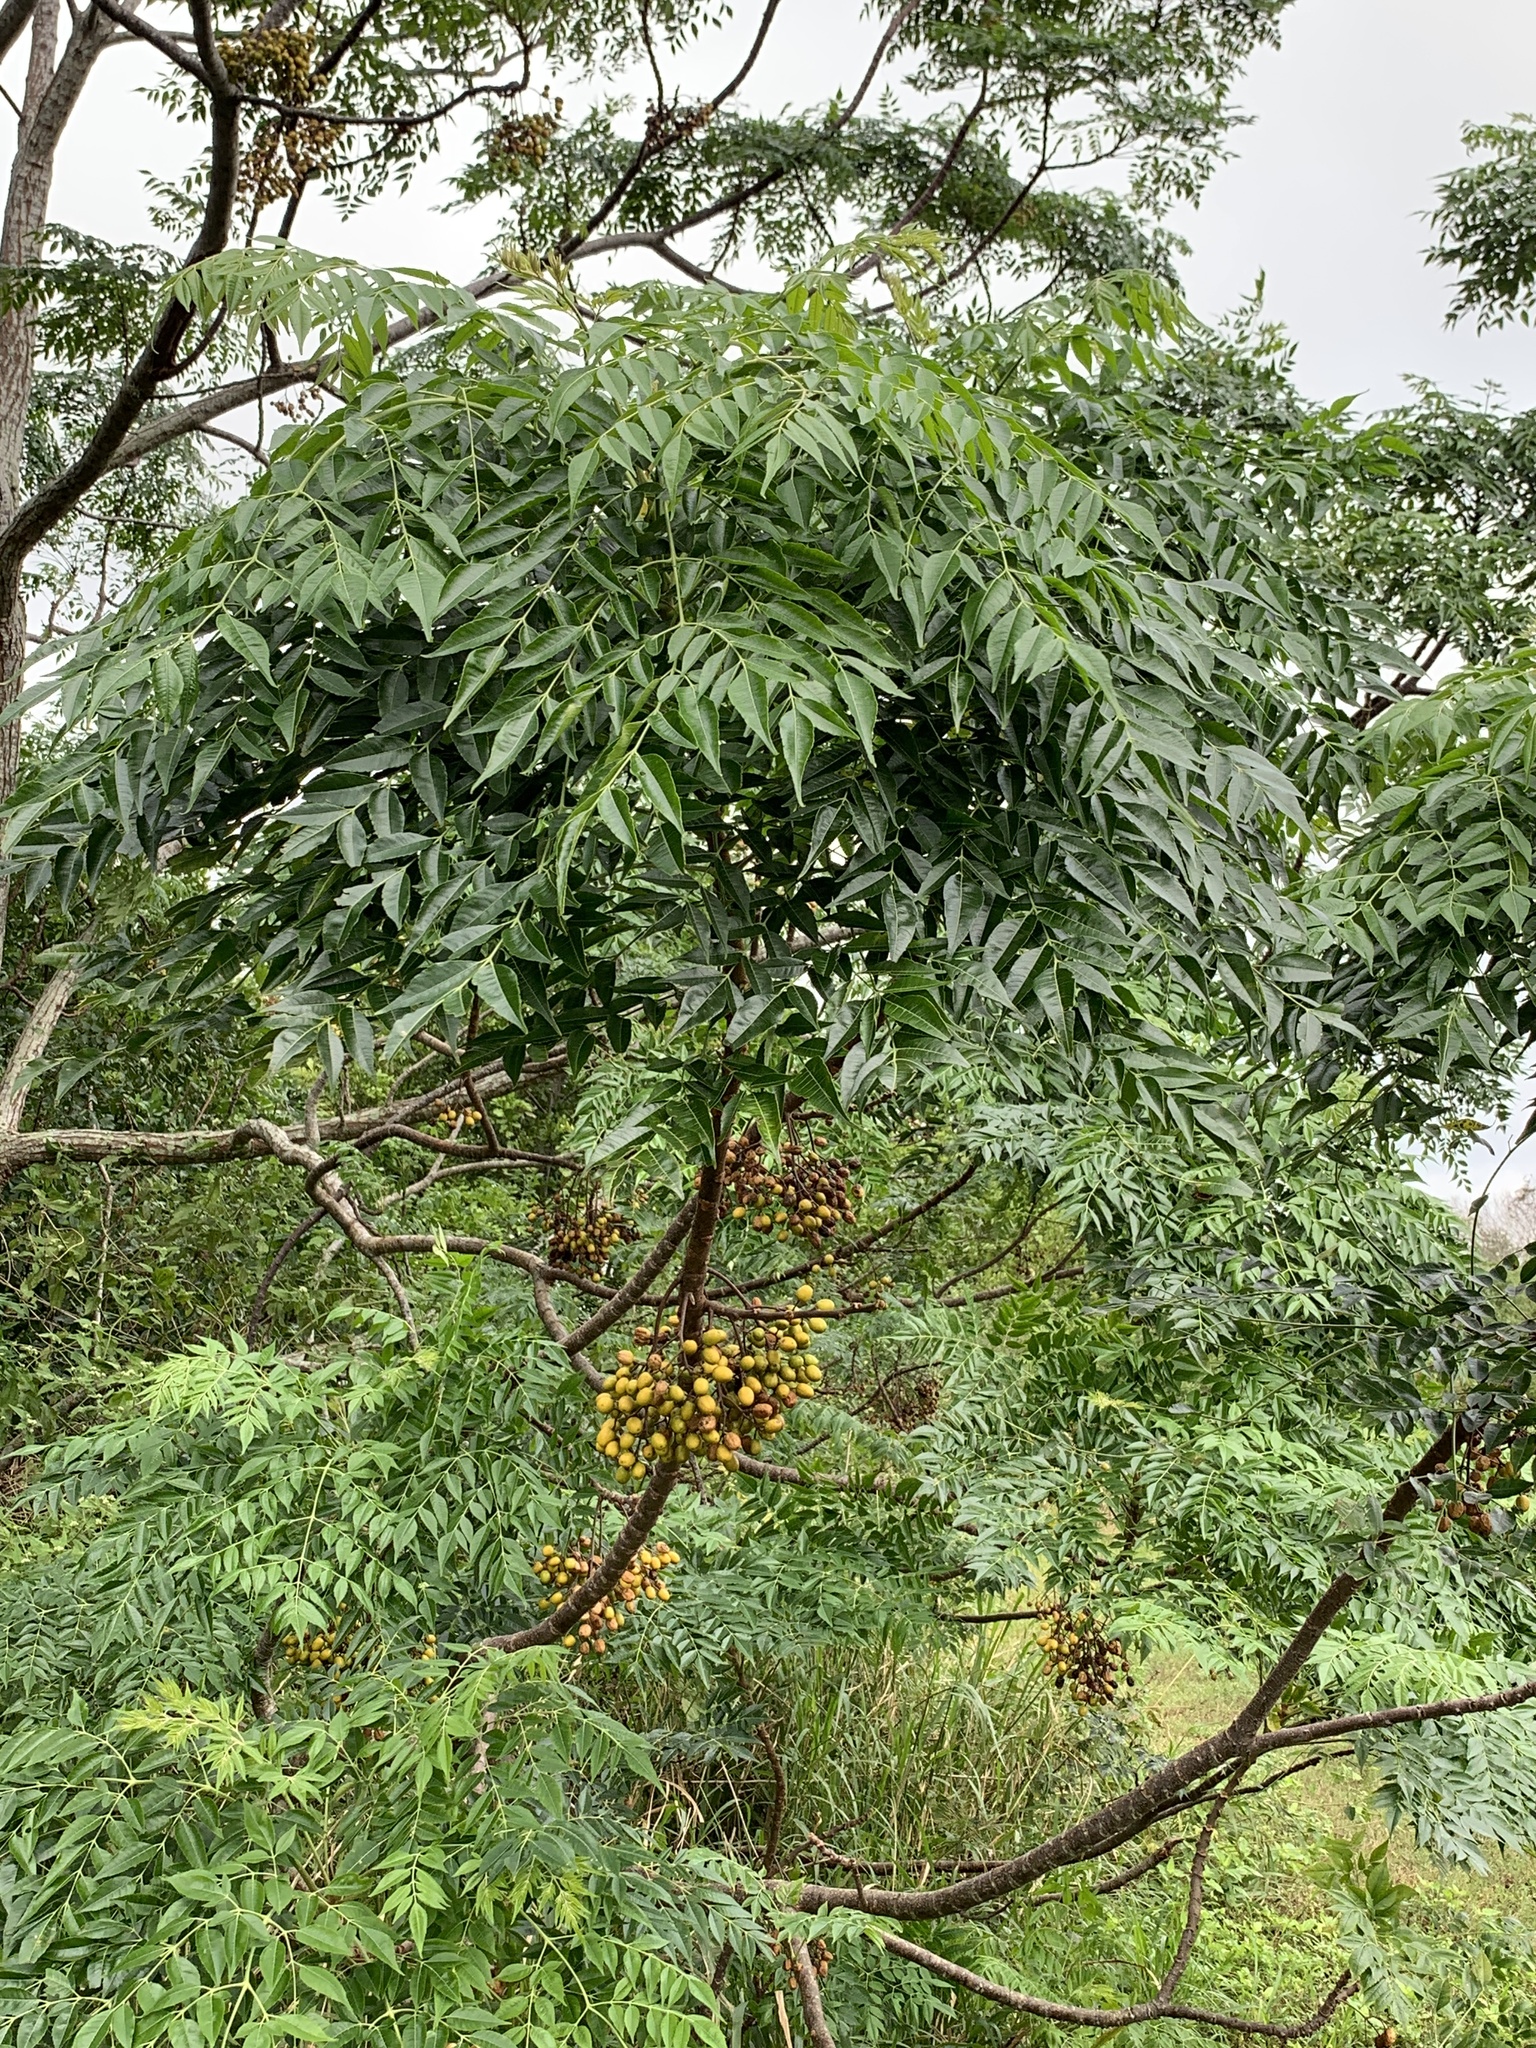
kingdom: Plantae
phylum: Tracheophyta
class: Magnoliopsida
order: Sapindales
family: Meliaceae
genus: Melia
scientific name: Melia azedarach
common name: Chinaberrytree
